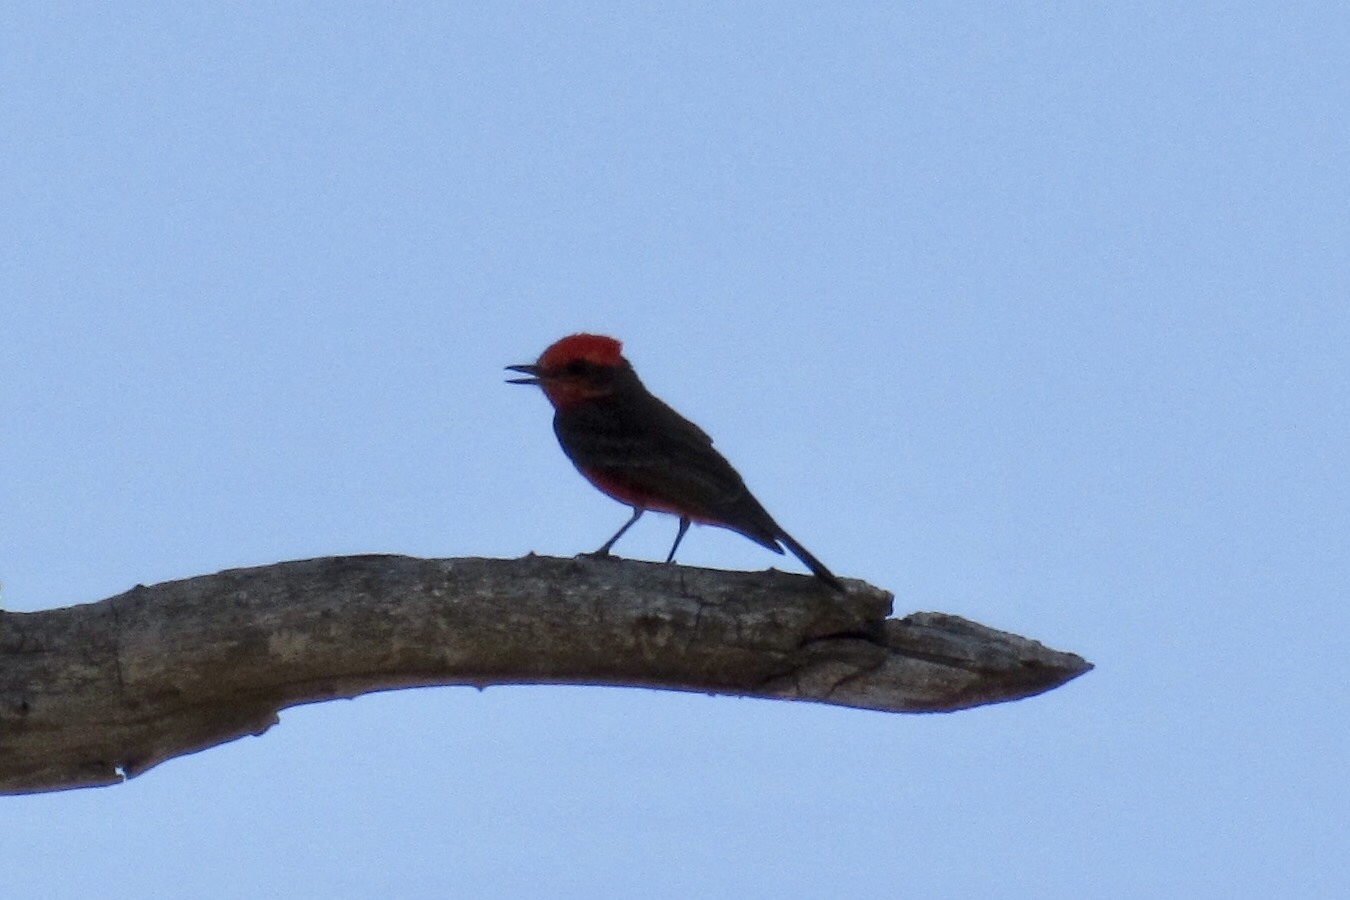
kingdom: Animalia
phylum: Chordata
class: Aves
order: Passeriformes
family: Tyrannidae
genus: Pyrocephalus
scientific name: Pyrocephalus rubinus
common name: Vermilion flycatcher
